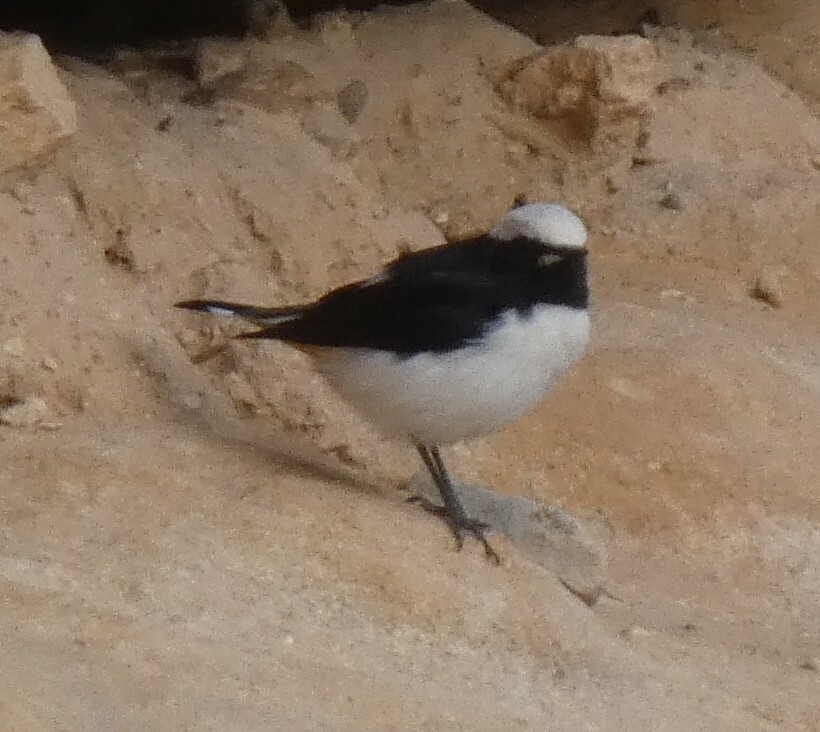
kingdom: Animalia
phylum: Chordata
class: Aves
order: Passeriformes
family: Muscicapidae
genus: Oenanthe
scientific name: Oenanthe lugens
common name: Mourning wheatear
